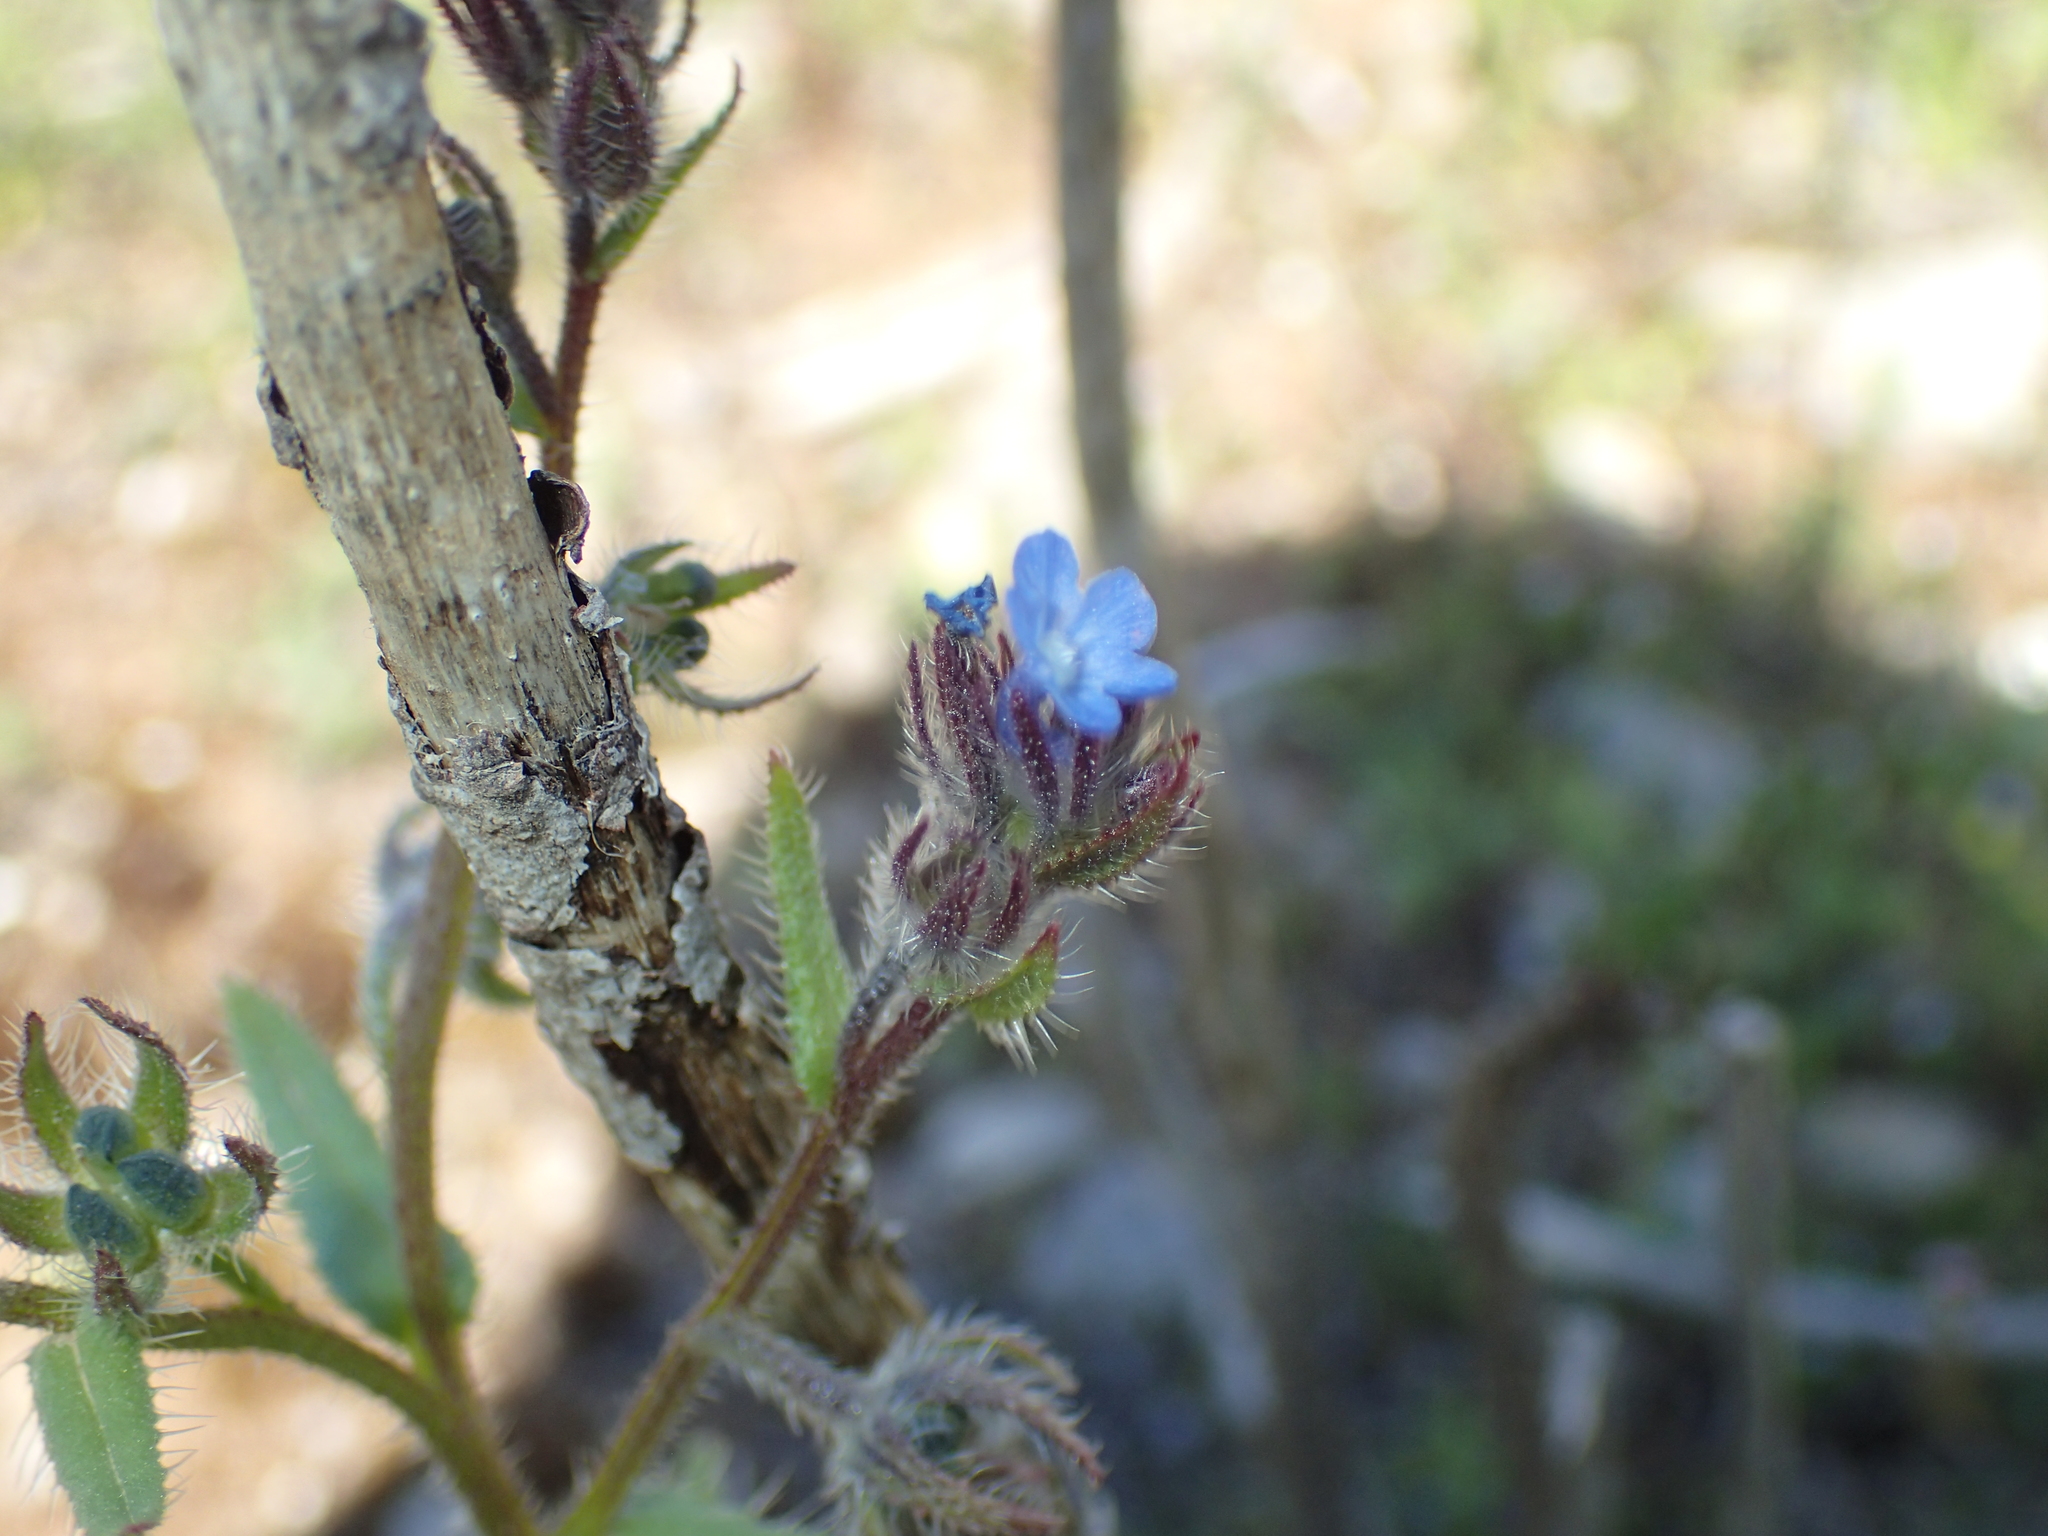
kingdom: Plantae
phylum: Tracheophyta
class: Magnoliopsida
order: Boraginales
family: Boraginaceae
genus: Lycopsis
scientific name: Lycopsis arvensis
